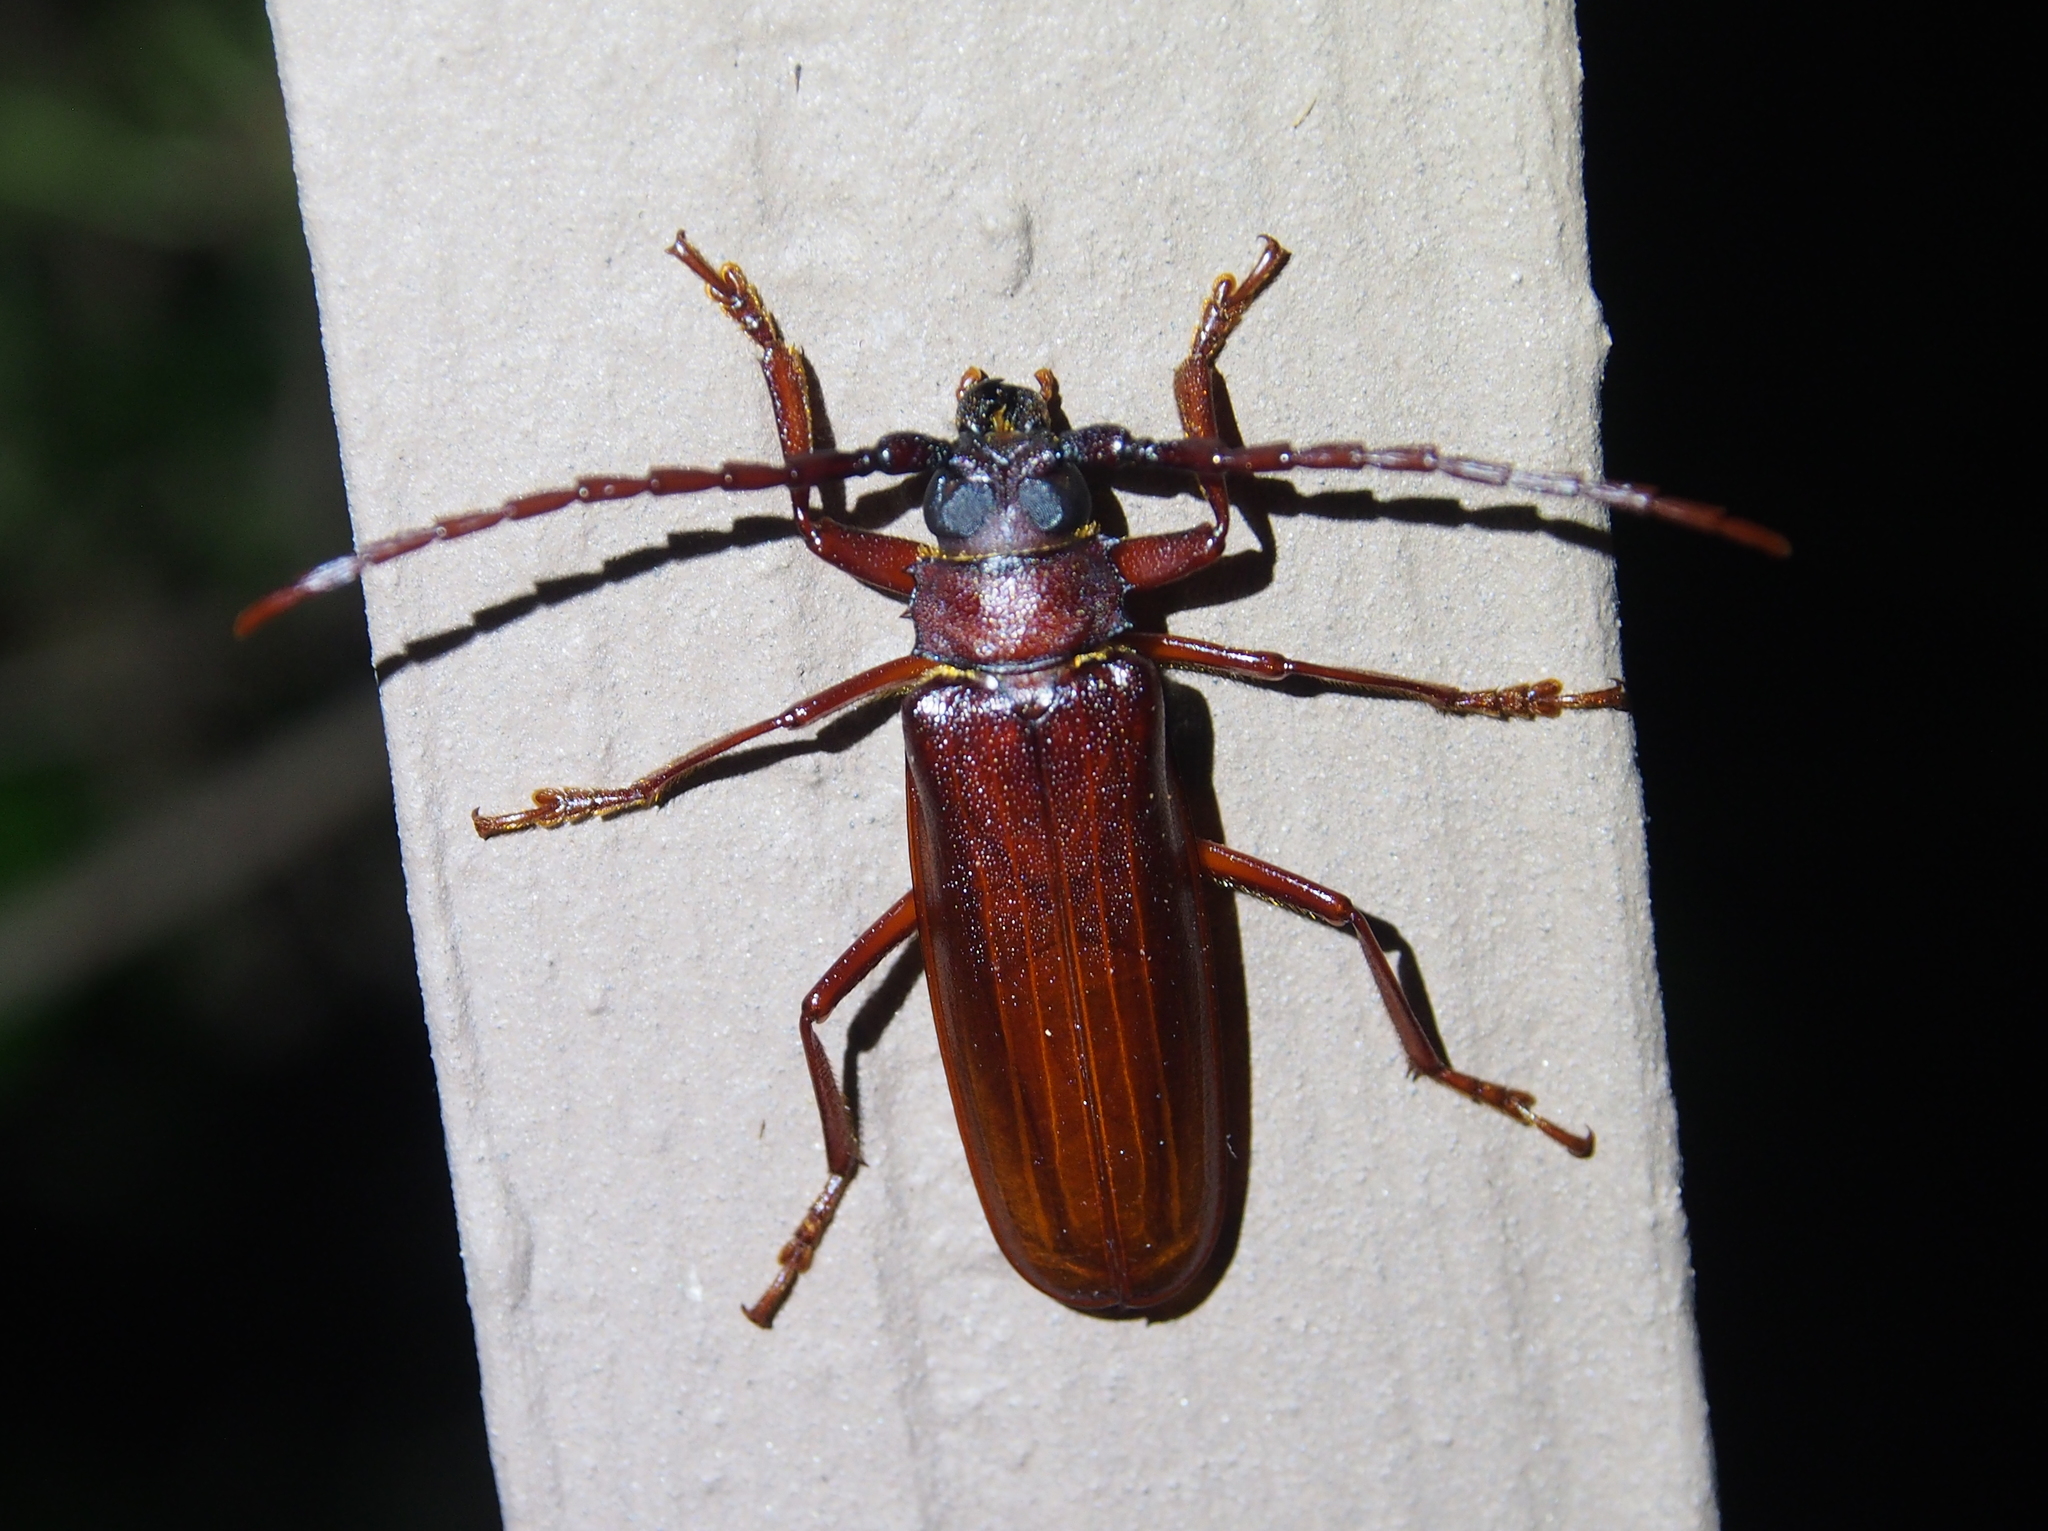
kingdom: Animalia
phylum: Arthropoda
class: Insecta
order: Coleoptera
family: Cerambycidae
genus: Orthosoma
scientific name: Orthosoma brunneum
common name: Brown prionid beetle
